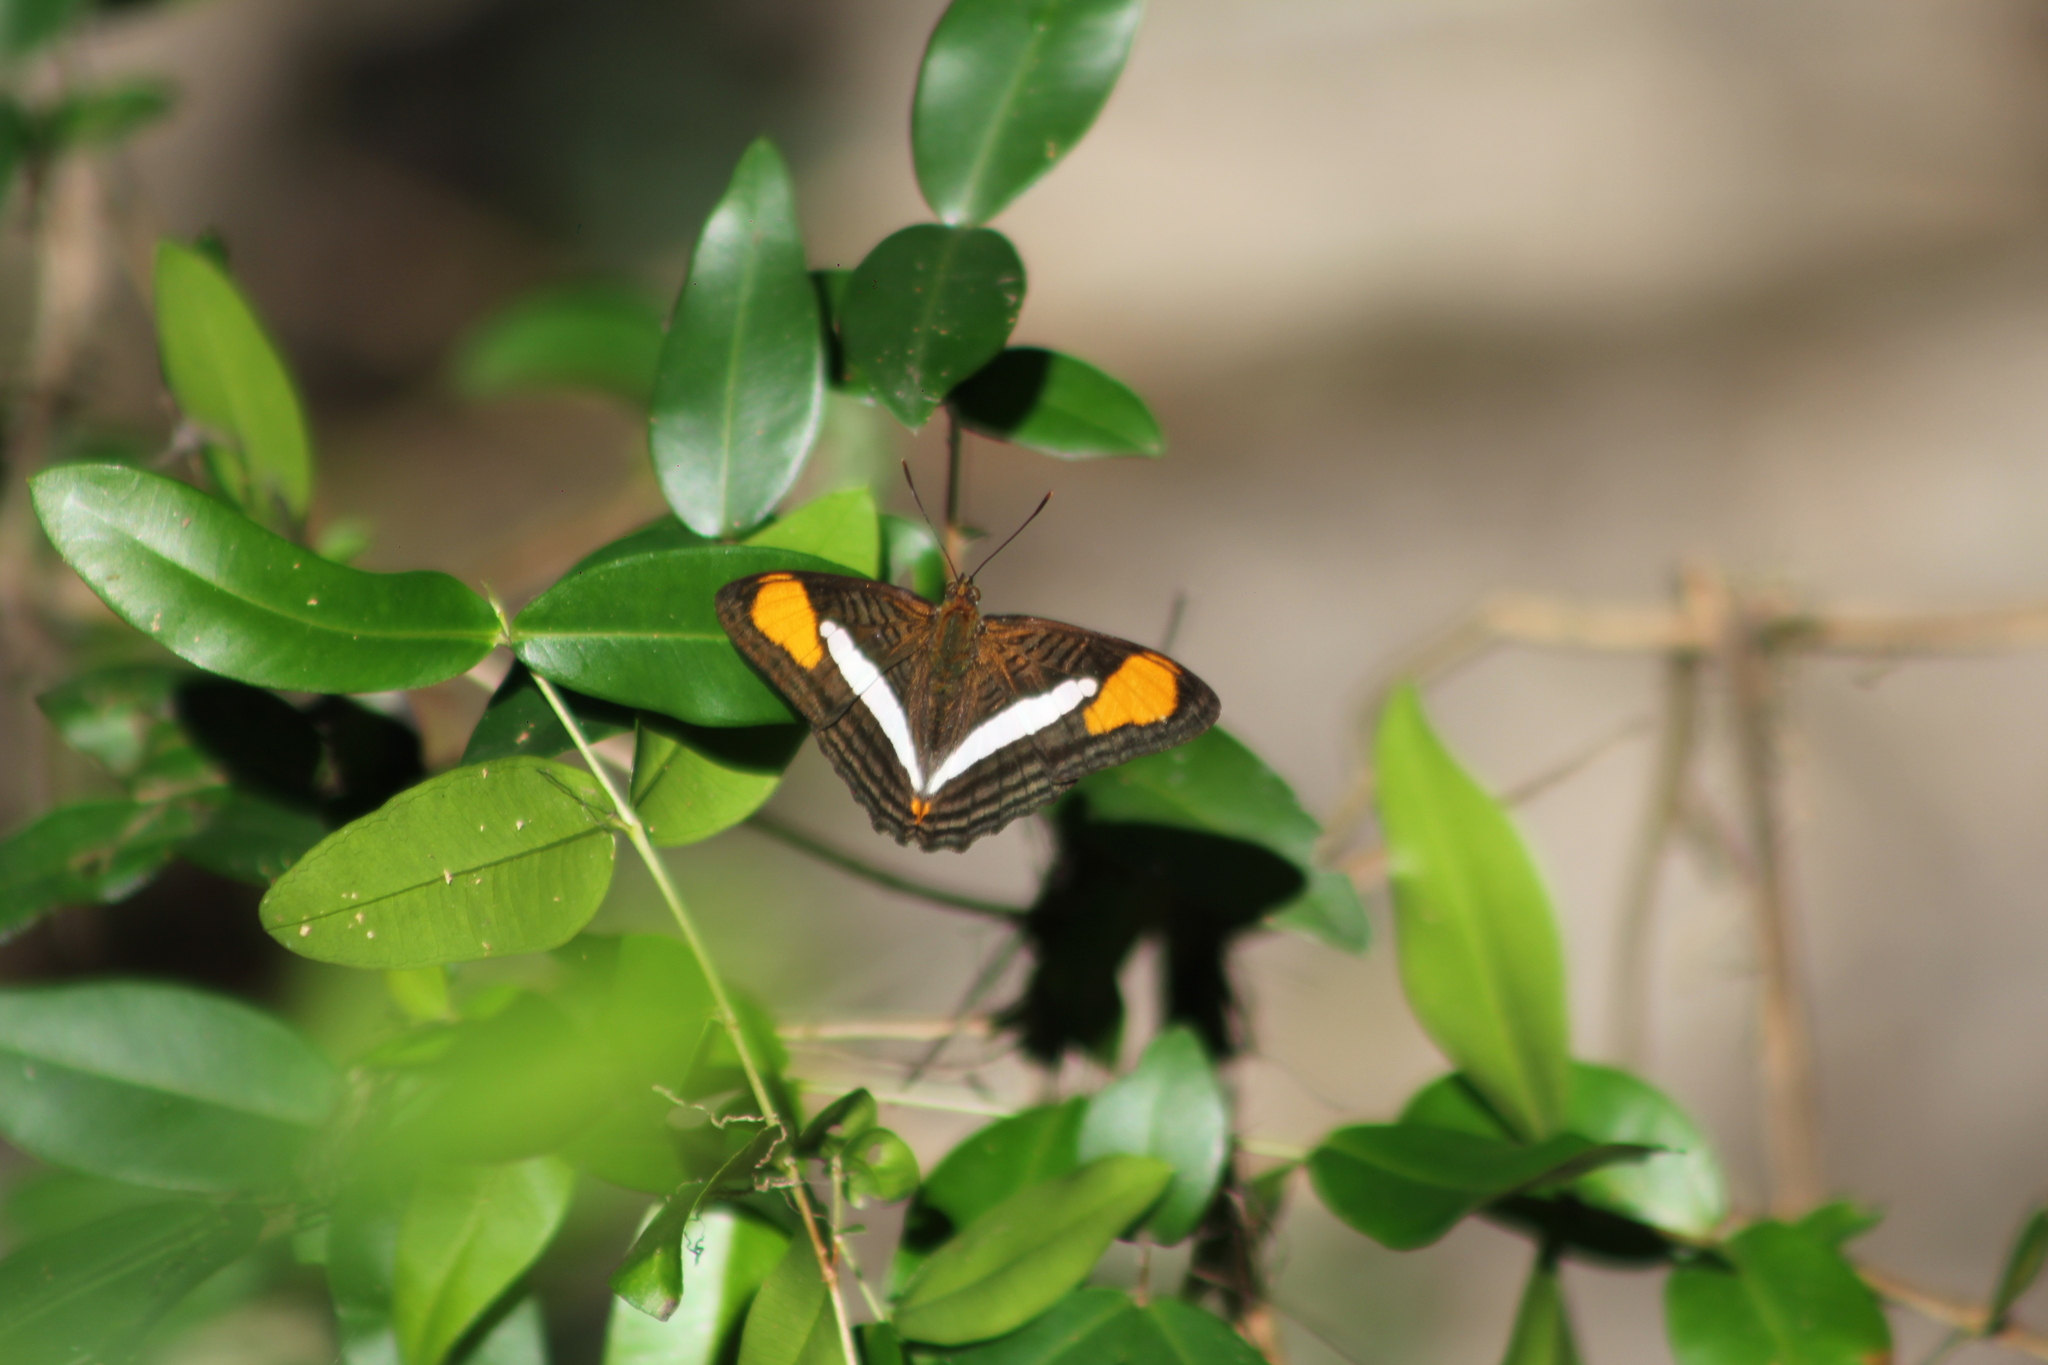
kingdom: Animalia
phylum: Arthropoda
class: Insecta
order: Lepidoptera
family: Nymphalidae
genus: Limenitis
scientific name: Limenitis thessalia
